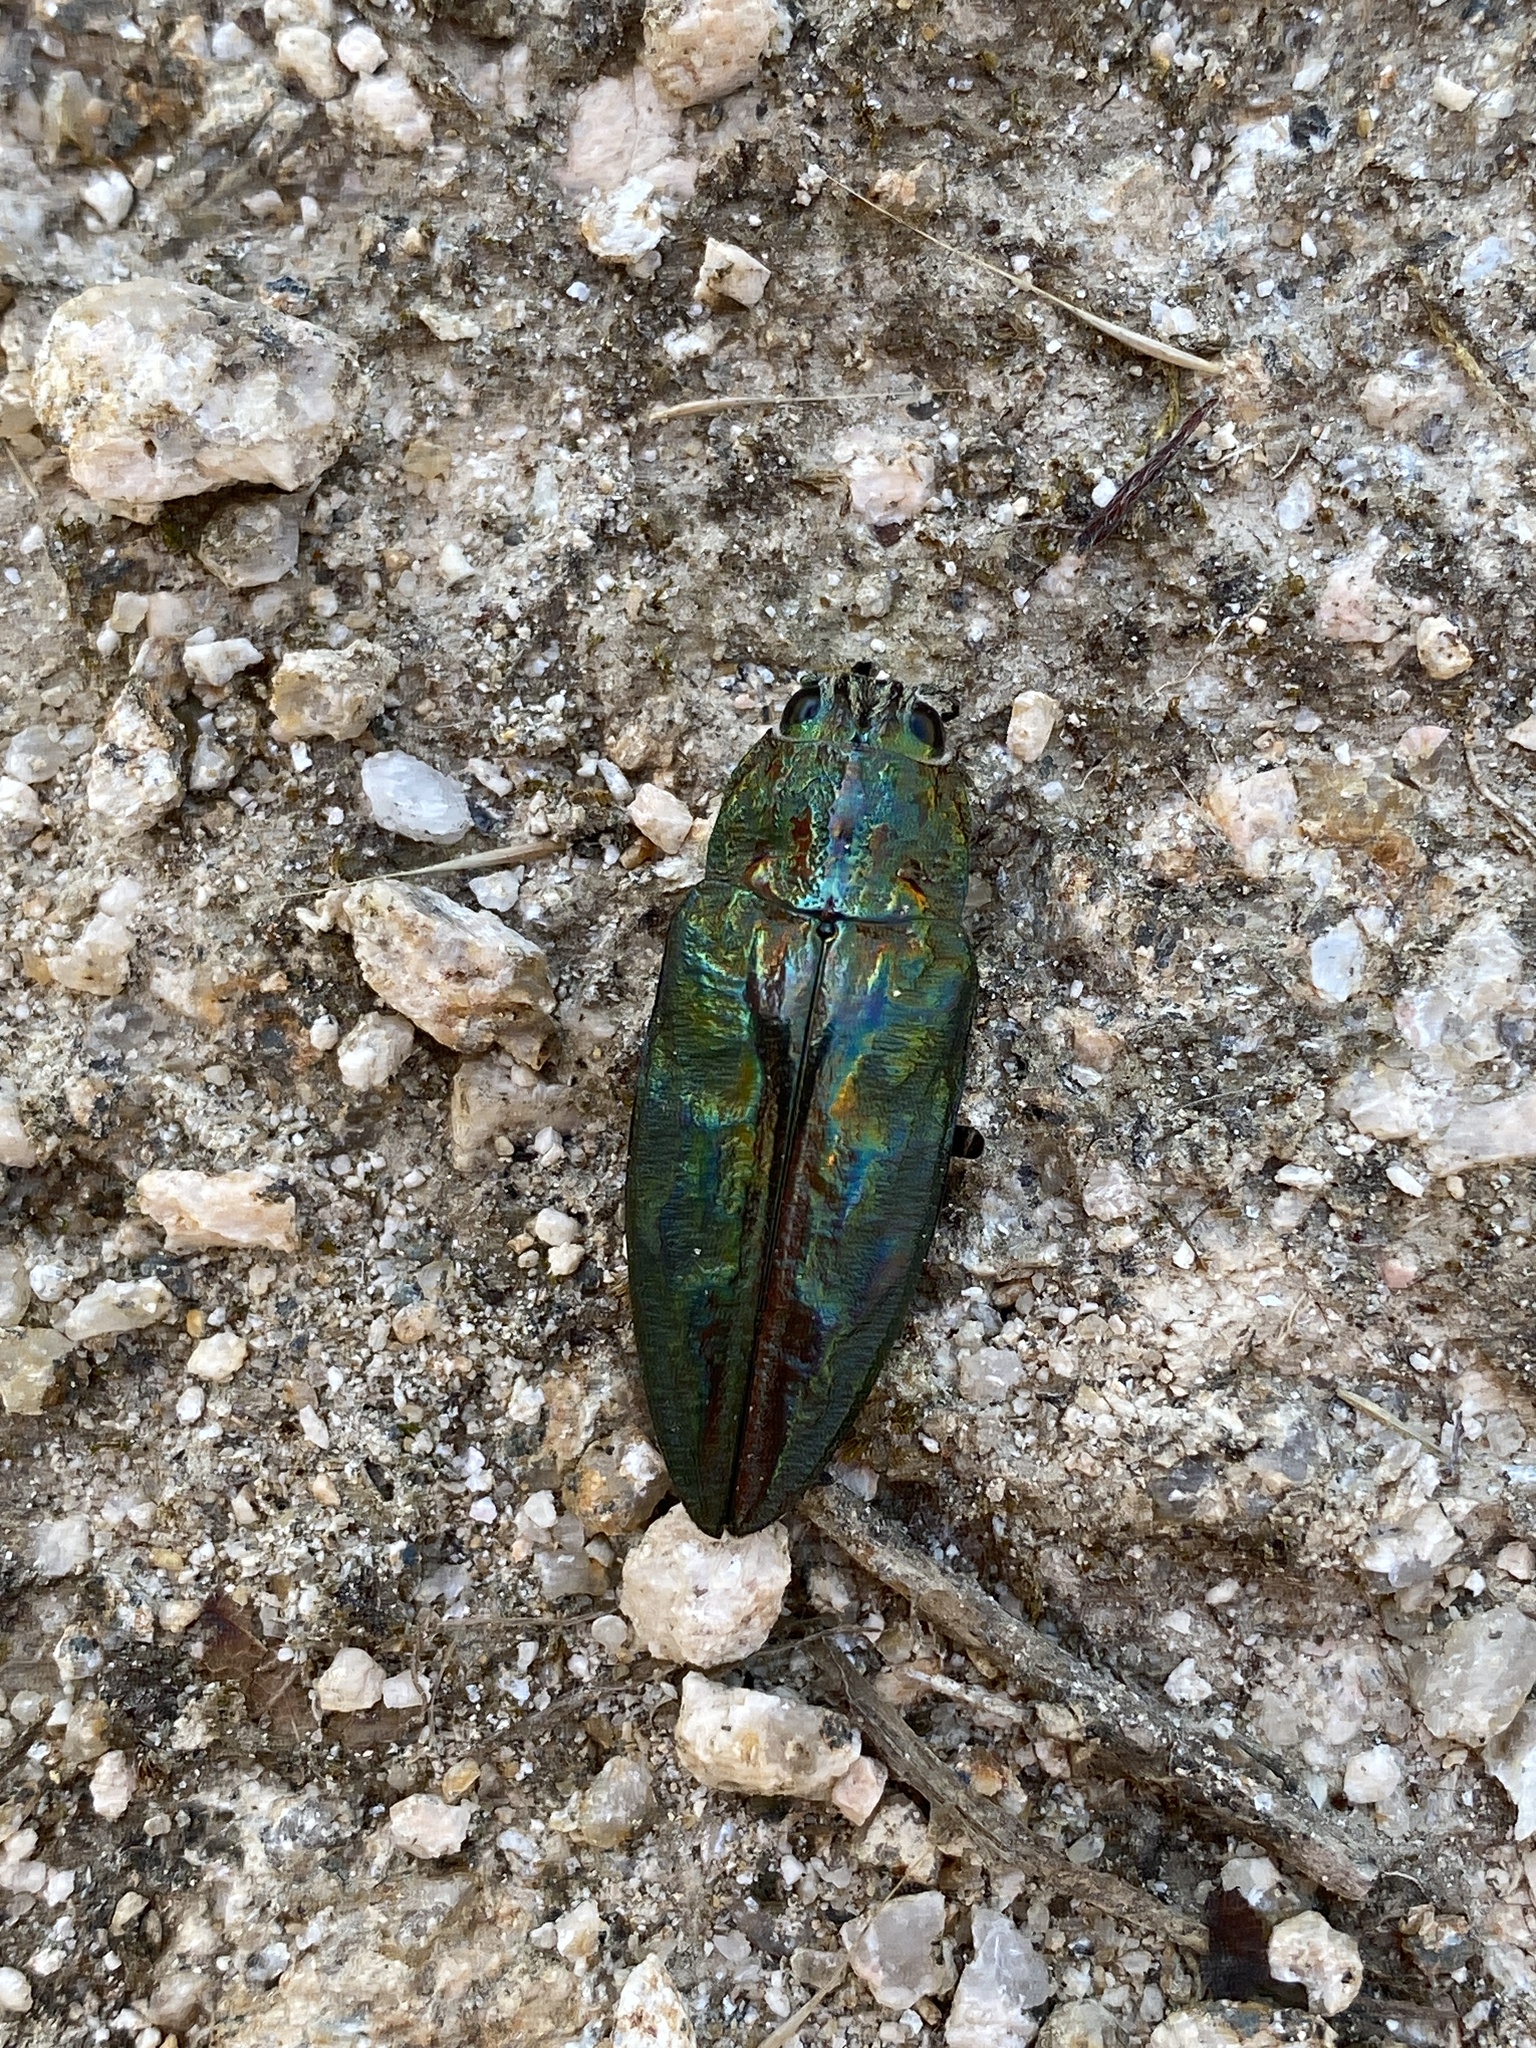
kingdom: Animalia
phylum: Arthropoda
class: Insecta
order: Coleoptera
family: Buprestidae
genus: Chalcophora
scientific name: Chalcophora massiliensis
